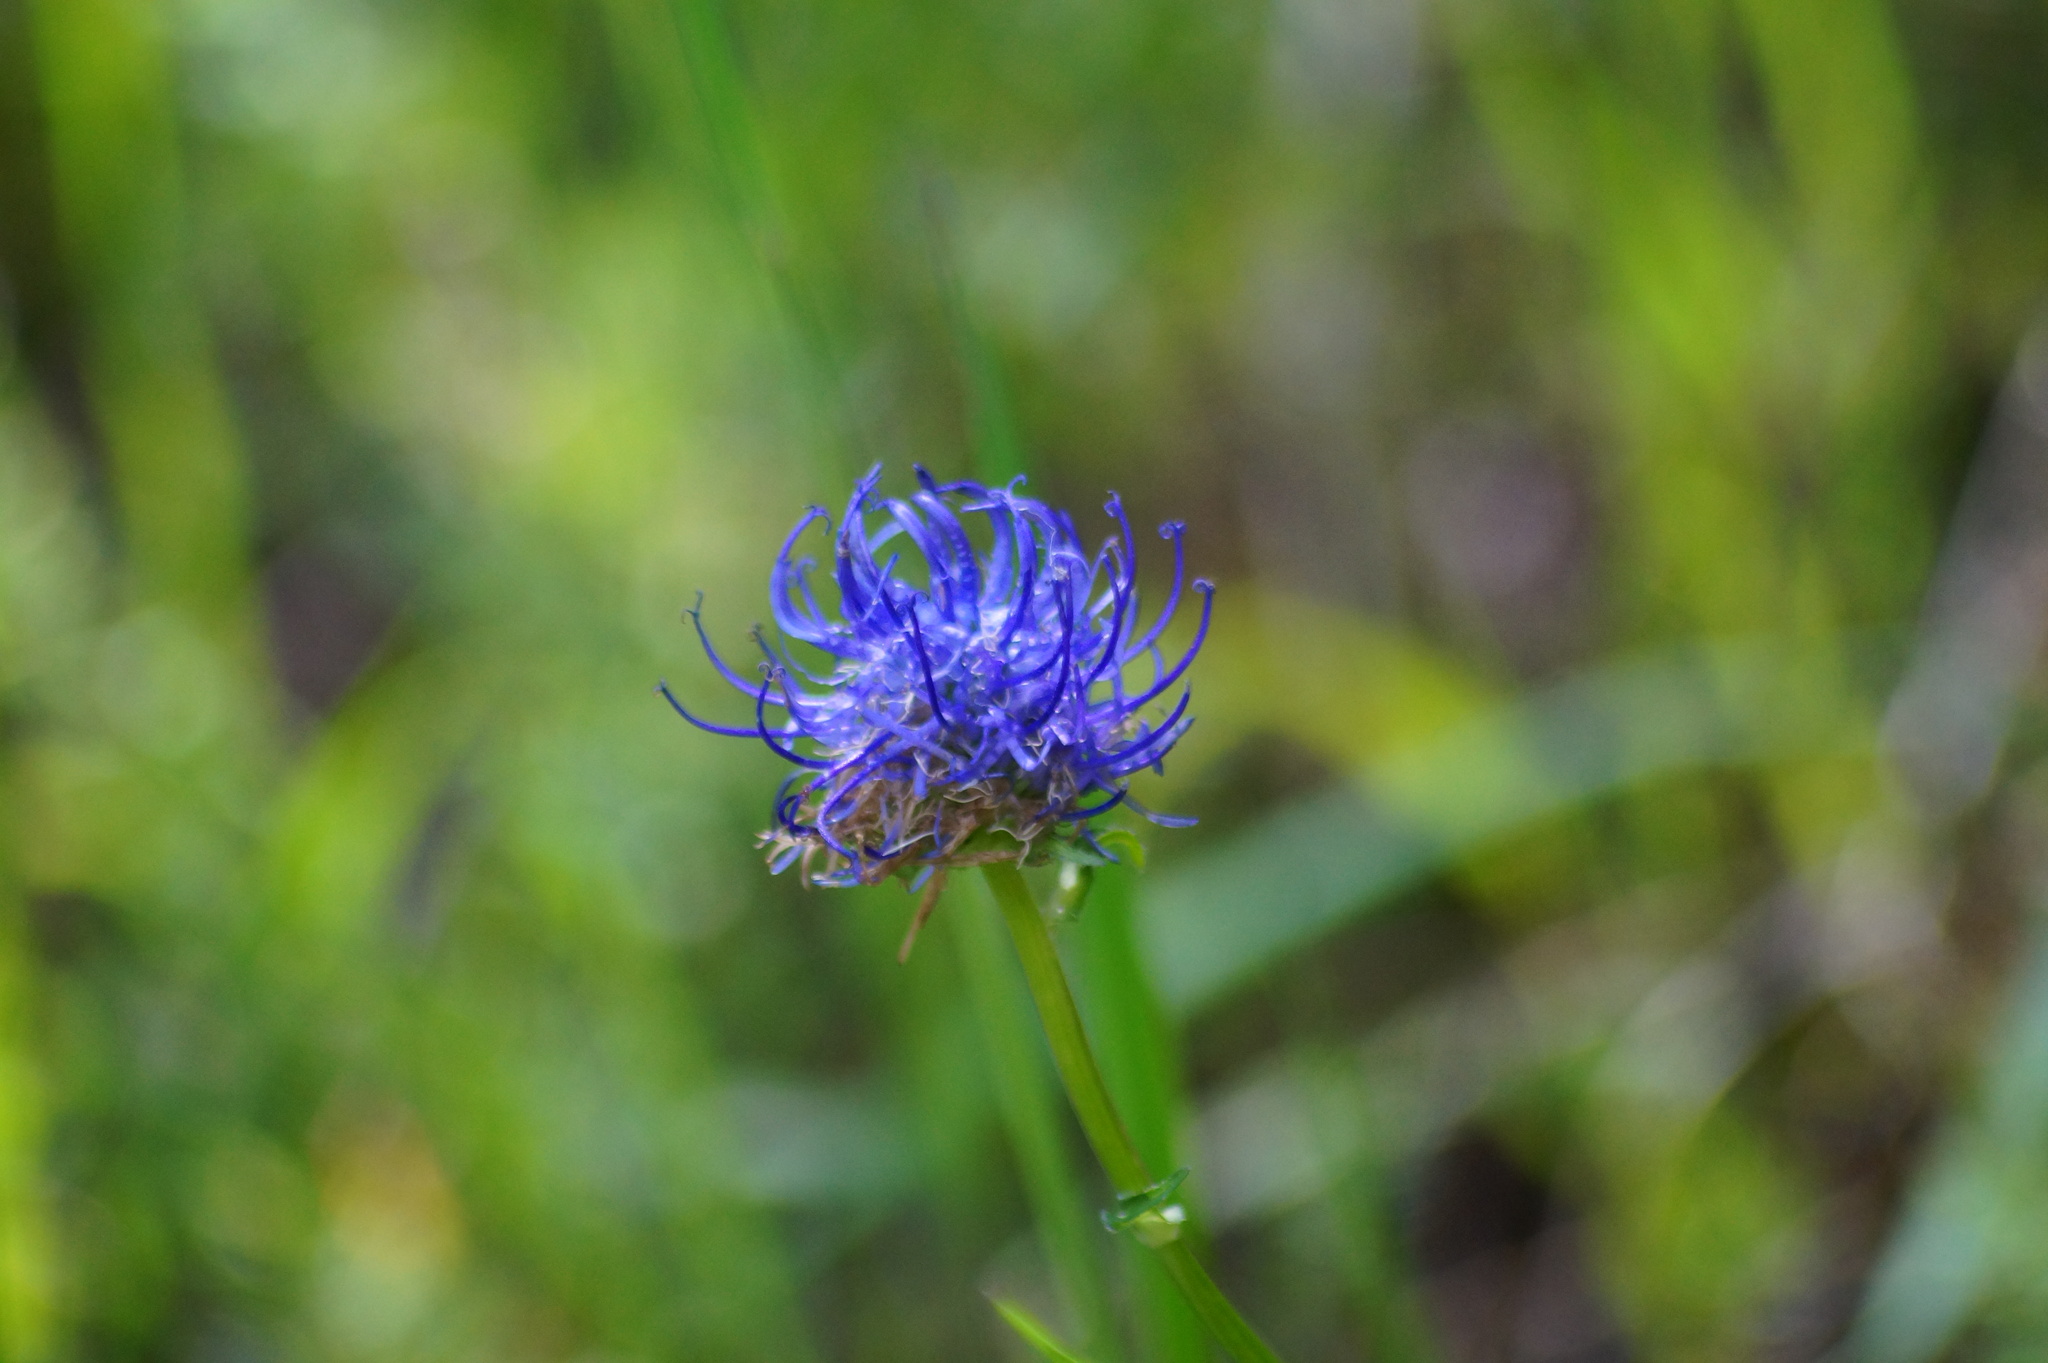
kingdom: Plantae
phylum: Tracheophyta
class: Magnoliopsida
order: Asterales
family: Campanulaceae
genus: Phyteuma
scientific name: Phyteuma orbiculare
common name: Round-headed rampion
